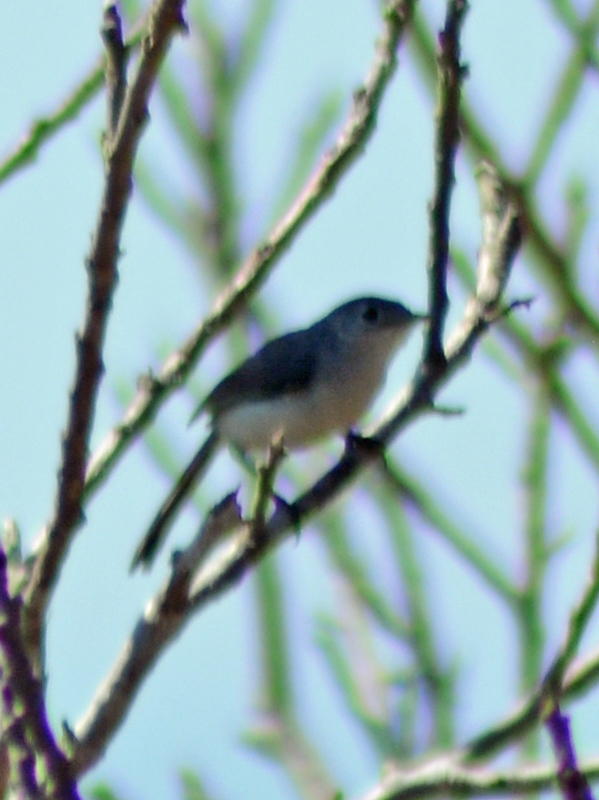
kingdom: Animalia
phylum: Chordata
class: Aves
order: Passeriformes
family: Polioptilidae
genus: Polioptila
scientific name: Polioptila caerulea
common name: Blue-gray gnatcatcher
